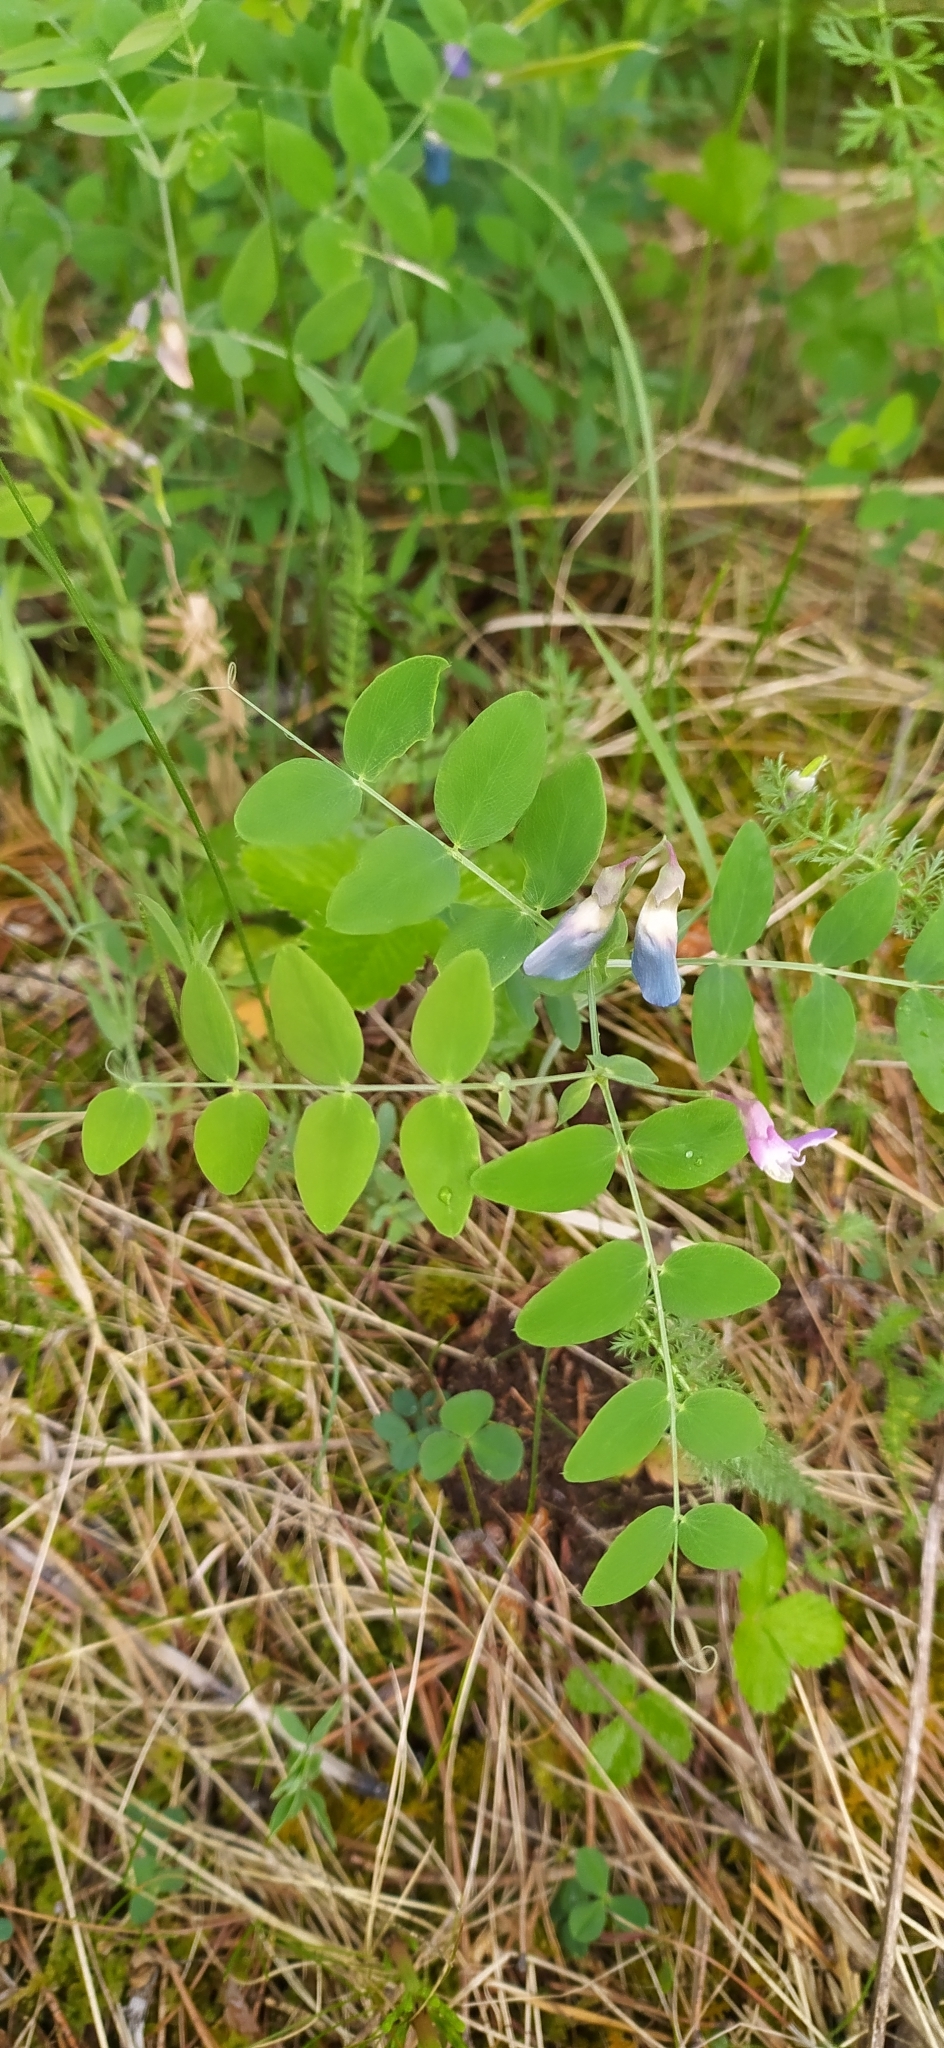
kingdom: Plantae
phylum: Tracheophyta
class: Magnoliopsida
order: Fabales
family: Fabaceae
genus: Lathyrus
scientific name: Lathyrus humilis
